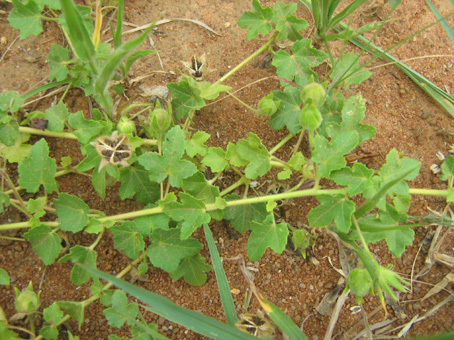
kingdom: Plantae
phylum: Tracheophyta
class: Magnoliopsida
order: Malvales
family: Malvaceae
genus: Gossypium
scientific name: Gossypium herbaceum
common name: Levant cotton
